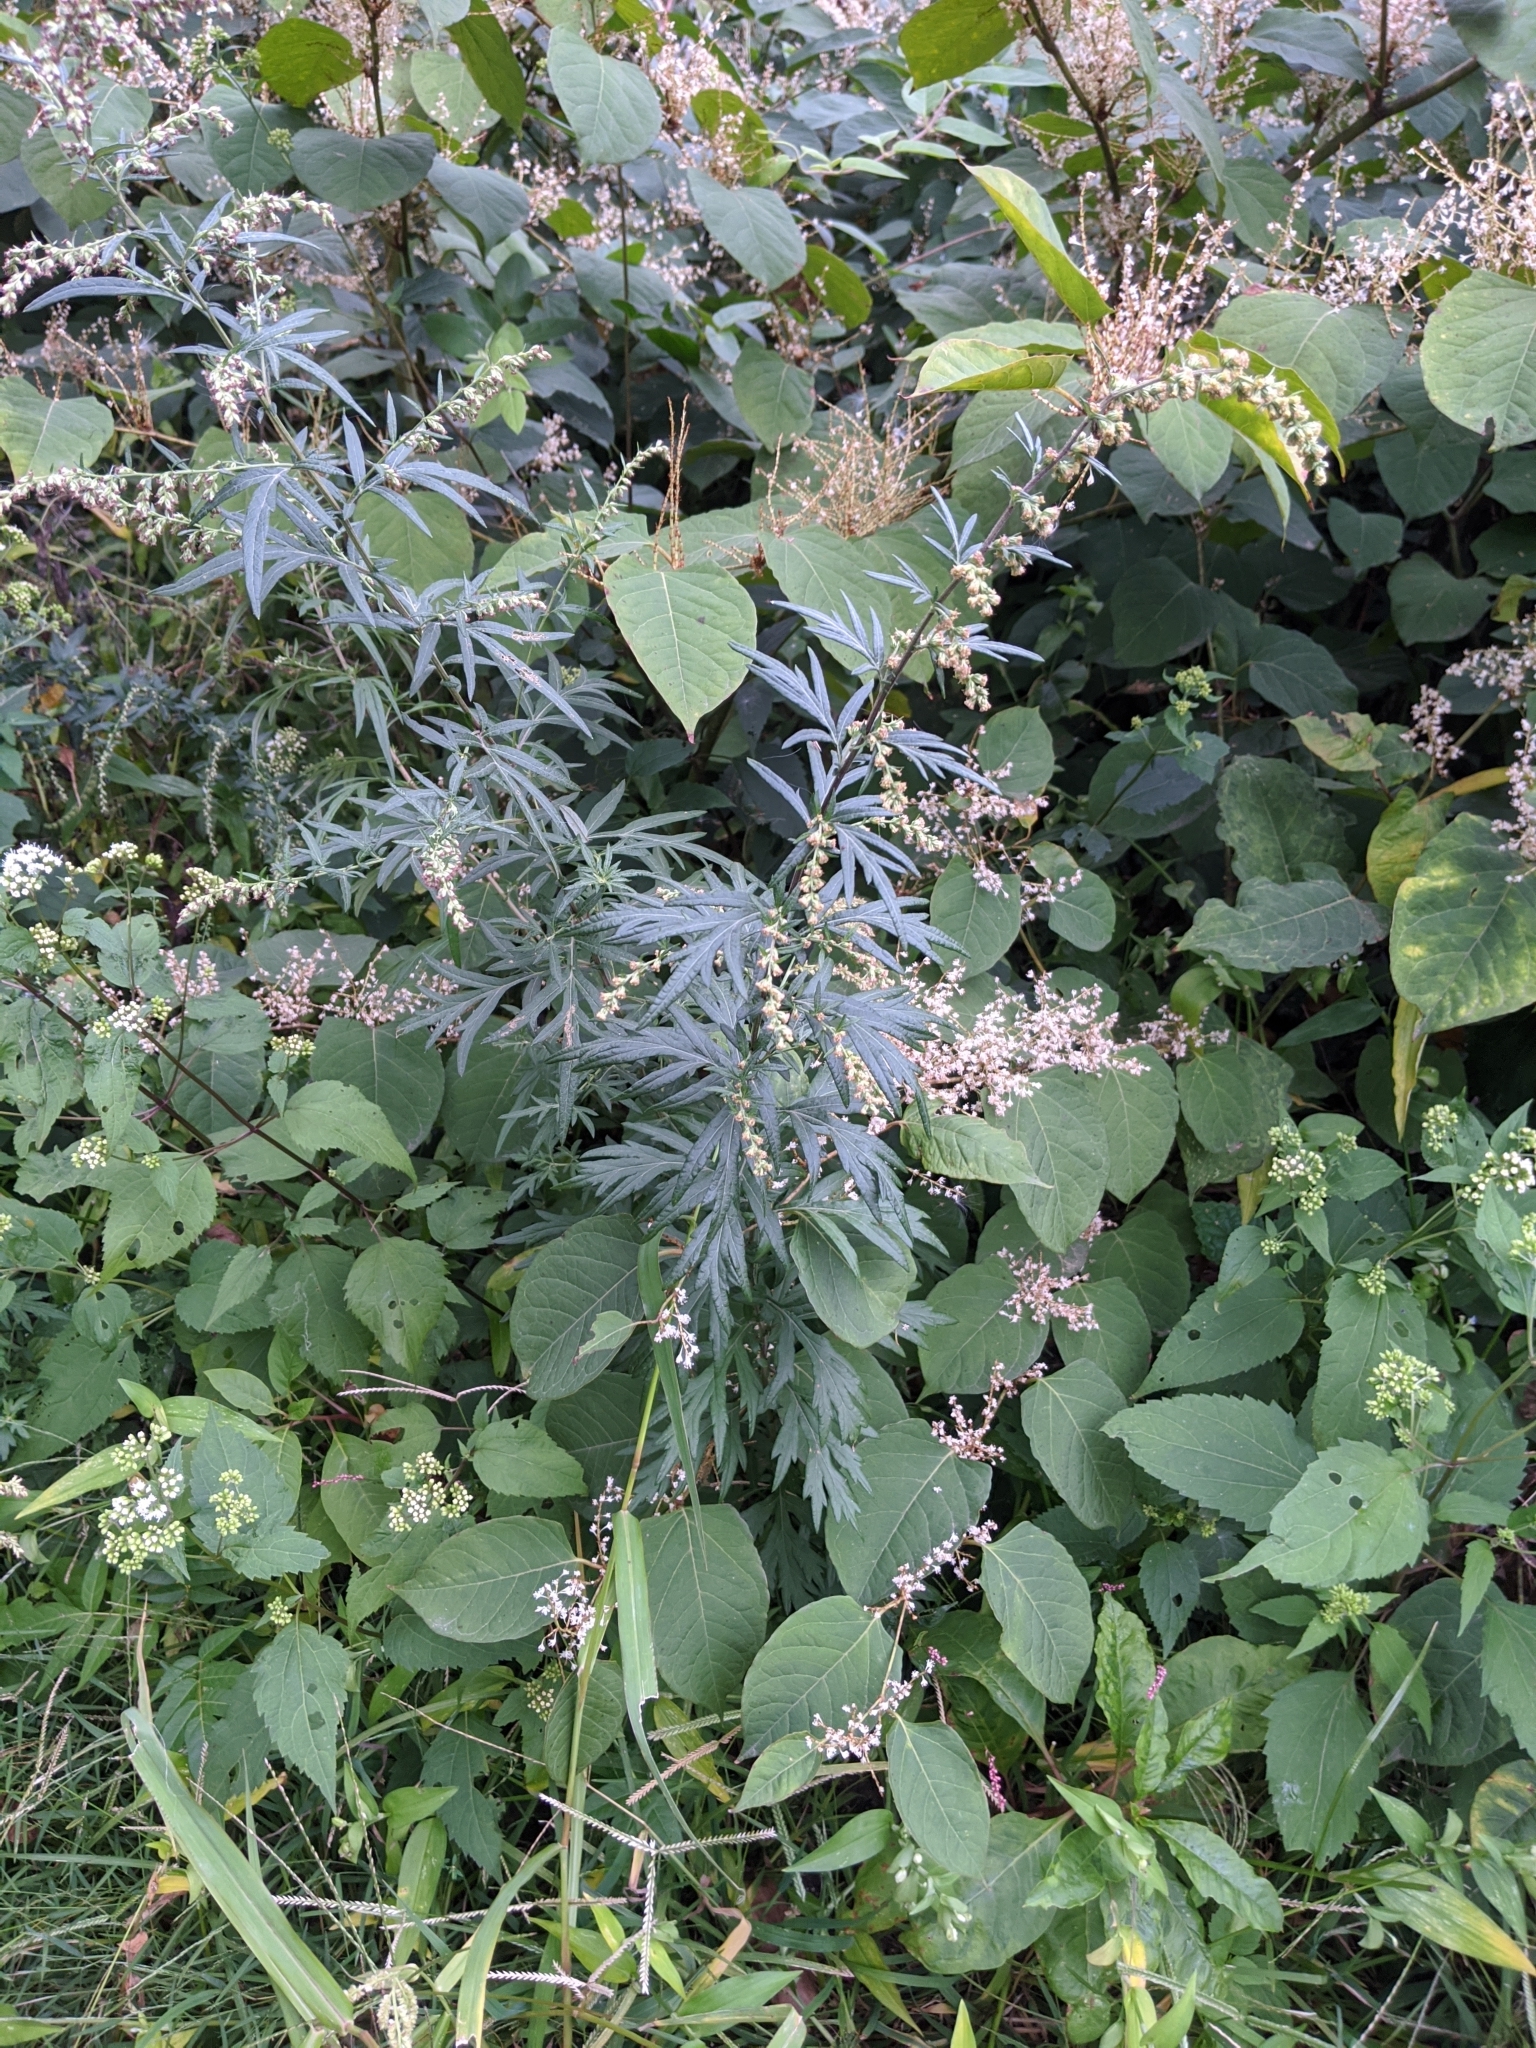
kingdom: Plantae
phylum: Tracheophyta
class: Magnoliopsida
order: Asterales
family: Asteraceae
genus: Artemisia
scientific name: Artemisia vulgaris
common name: Mugwort
